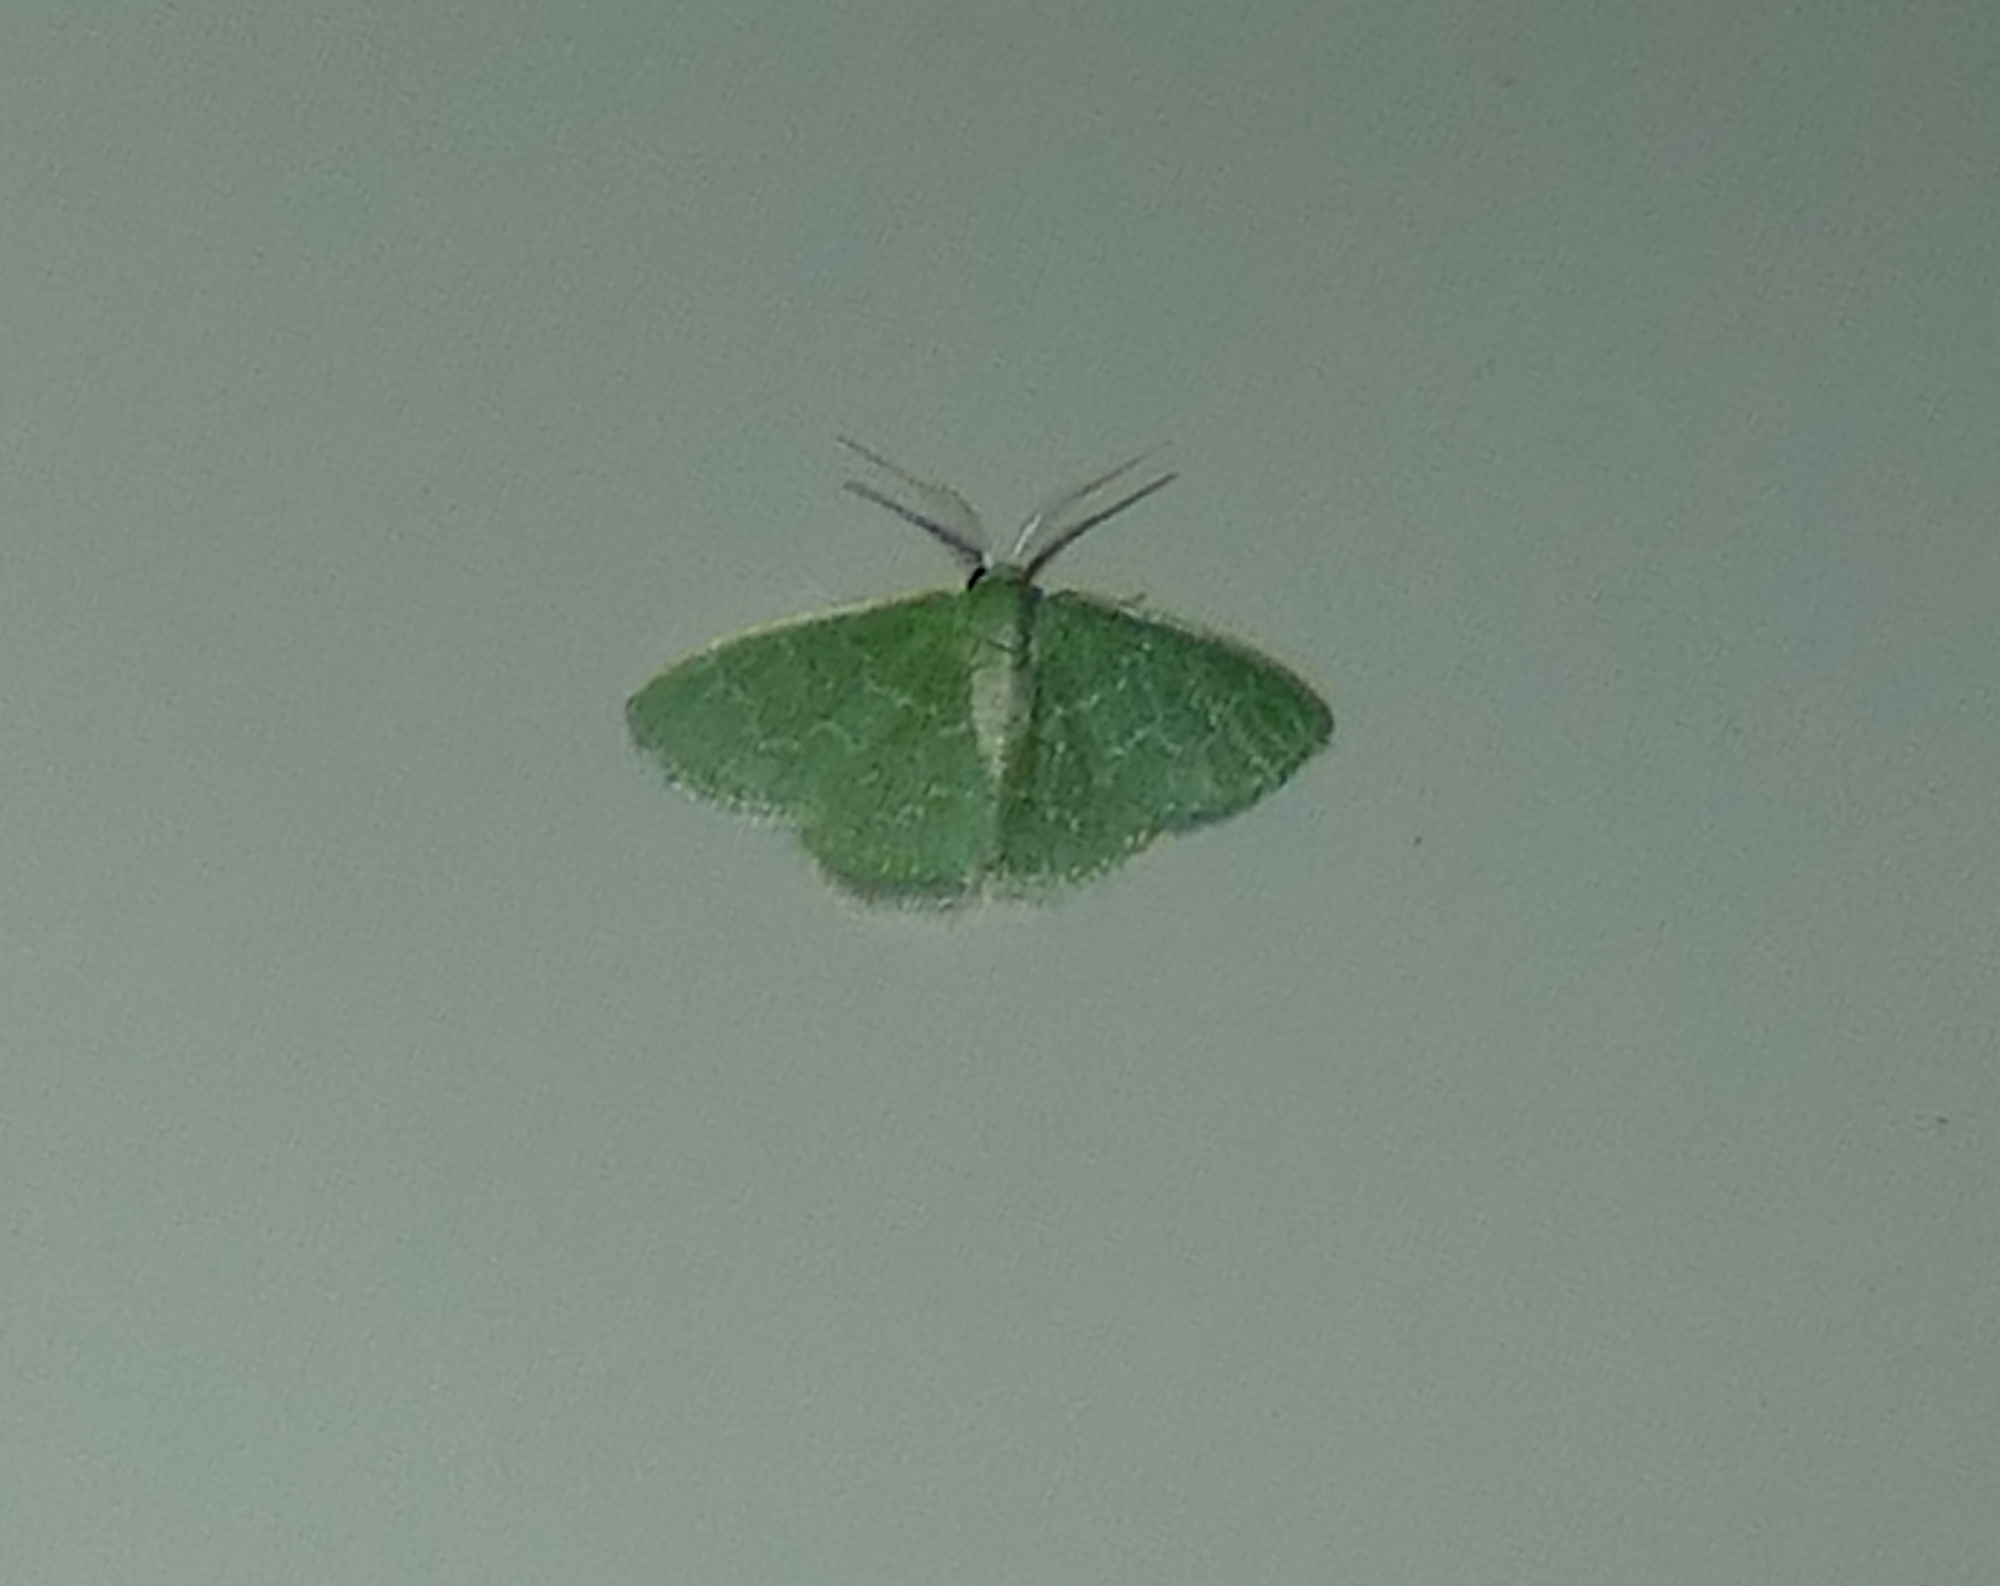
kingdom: Animalia
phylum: Arthropoda
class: Insecta
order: Lepidoptera
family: Geometridae
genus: Synchlora
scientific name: Synchlora frondaria
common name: Southern emerald
